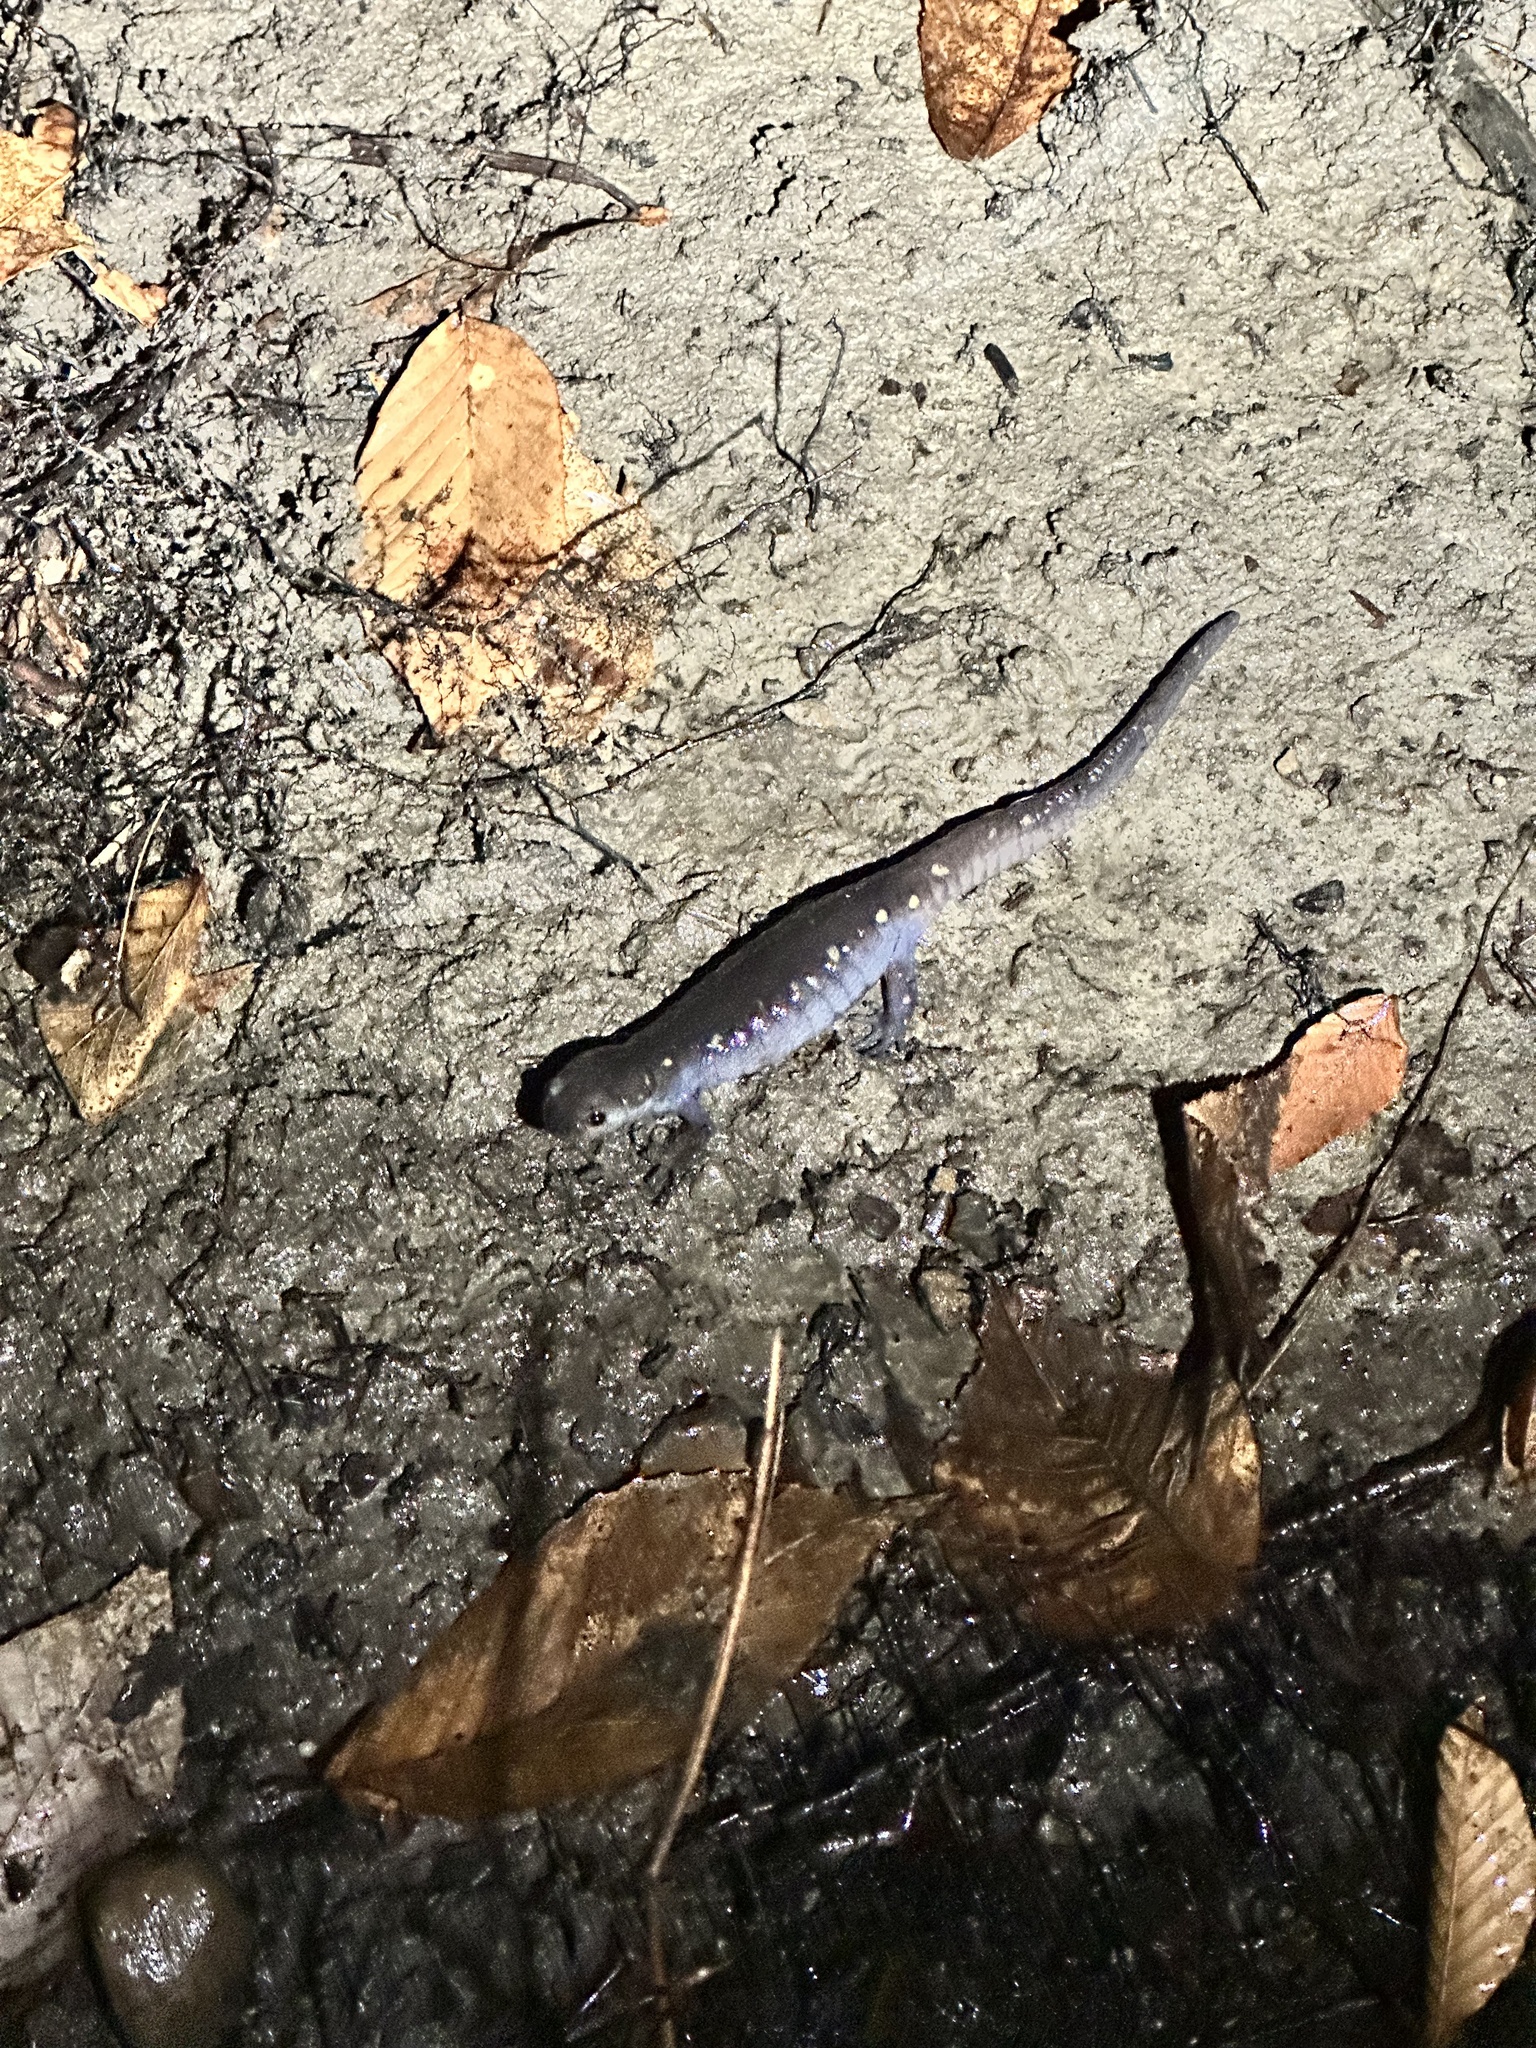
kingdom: Animalia
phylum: Chordata
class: Amphibia
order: Caudata
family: Ambystomatidae
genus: Ambystoma
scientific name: Ambystoma maculatum
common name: Spotted salamander
